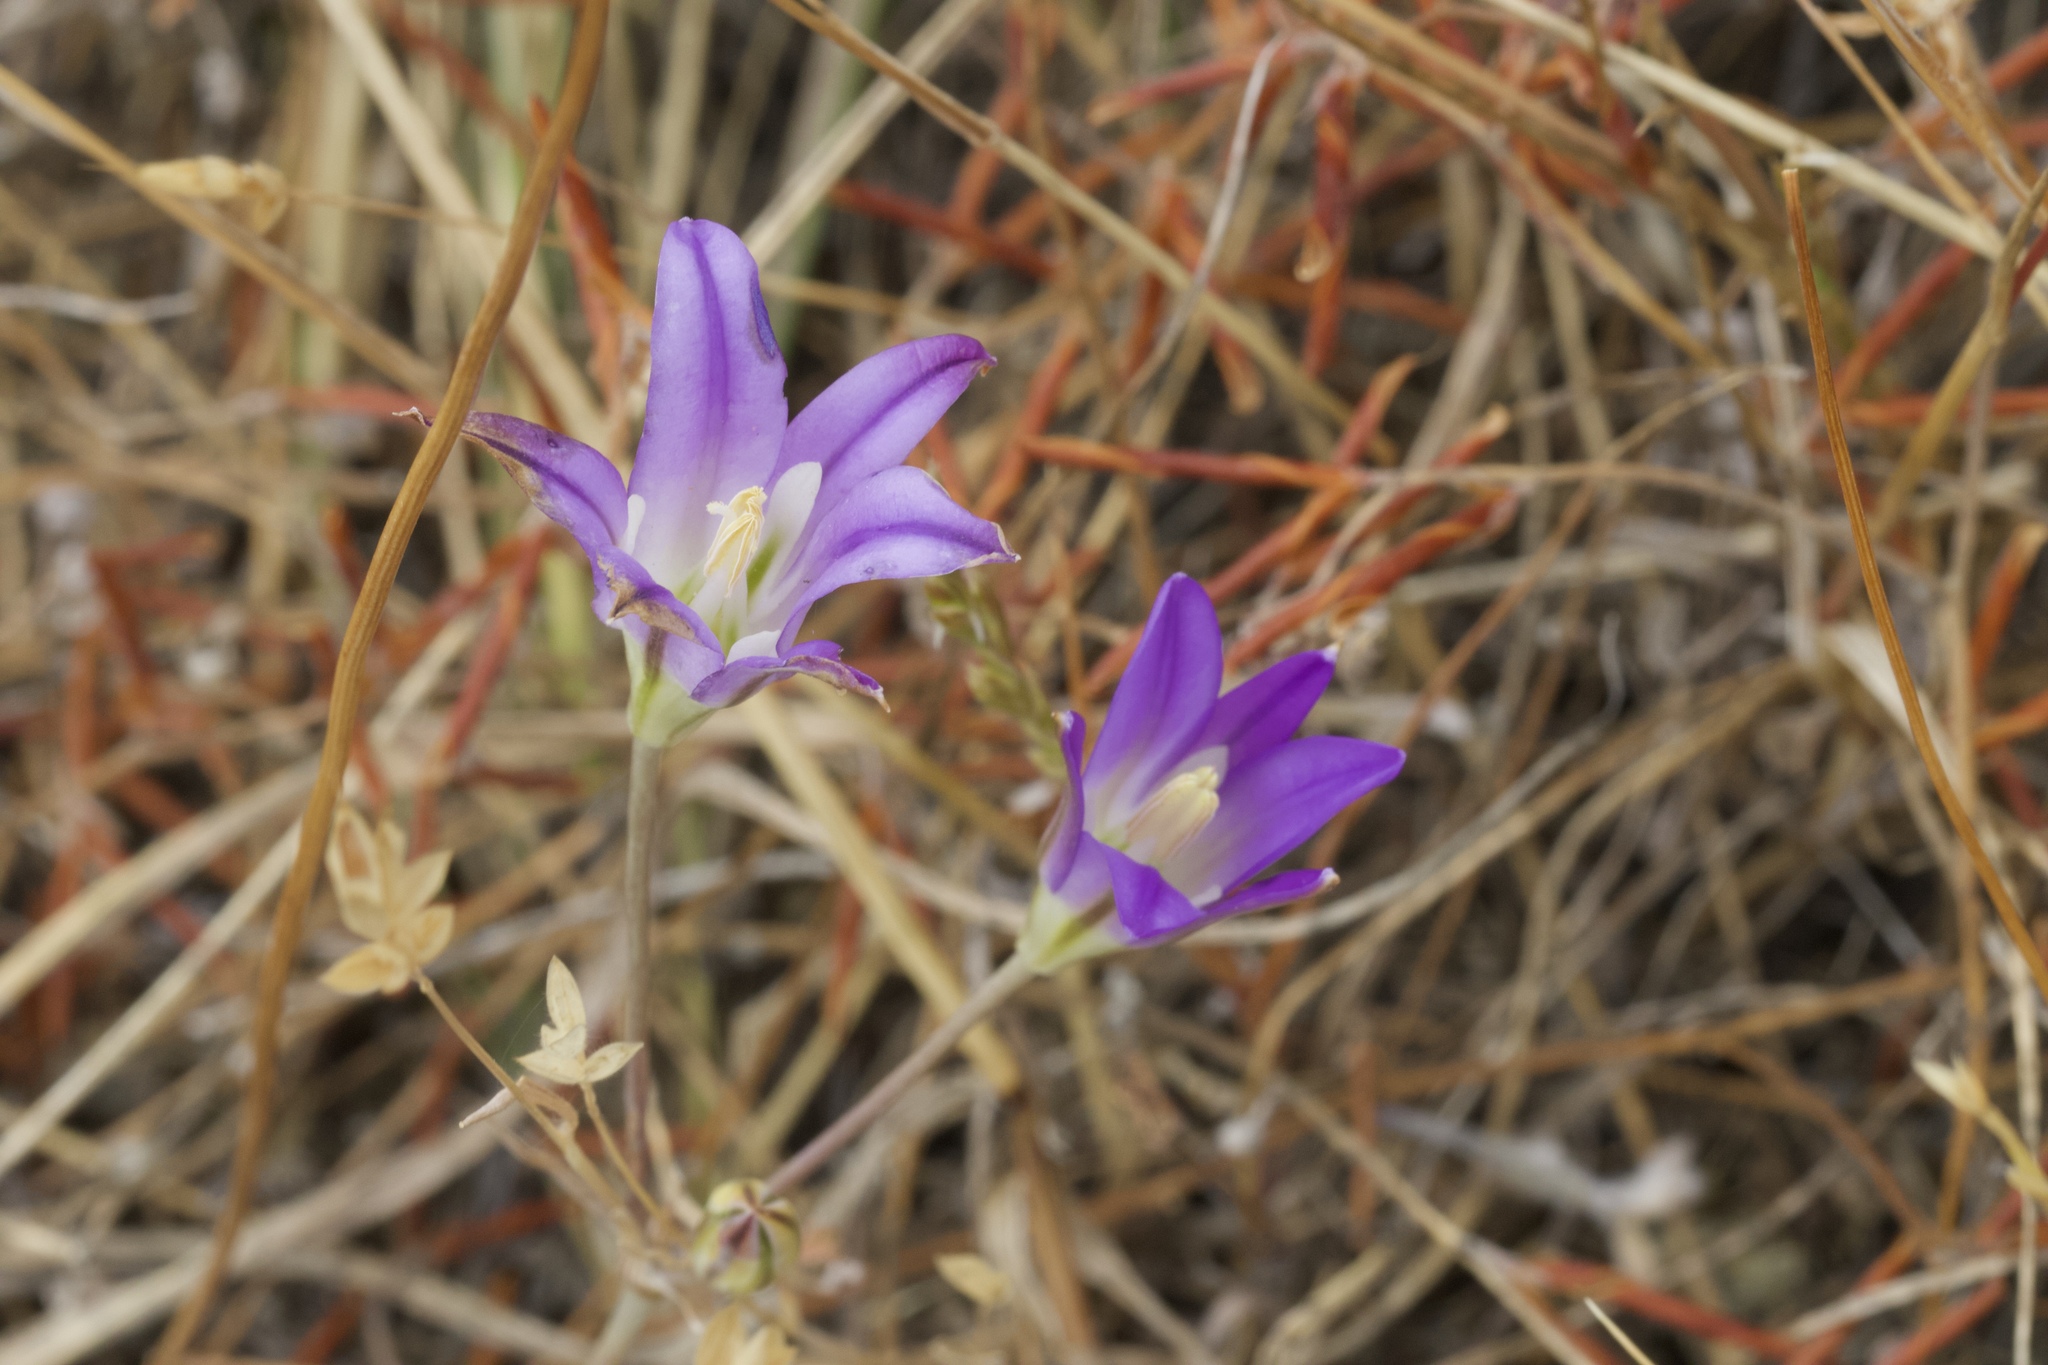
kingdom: Plantae
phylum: Tracheophyta
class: Liliopsida
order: Asparagales
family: Asparagaceae
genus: Brodiaea
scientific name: Brodiaea elegans
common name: Elegant cluster-lily
